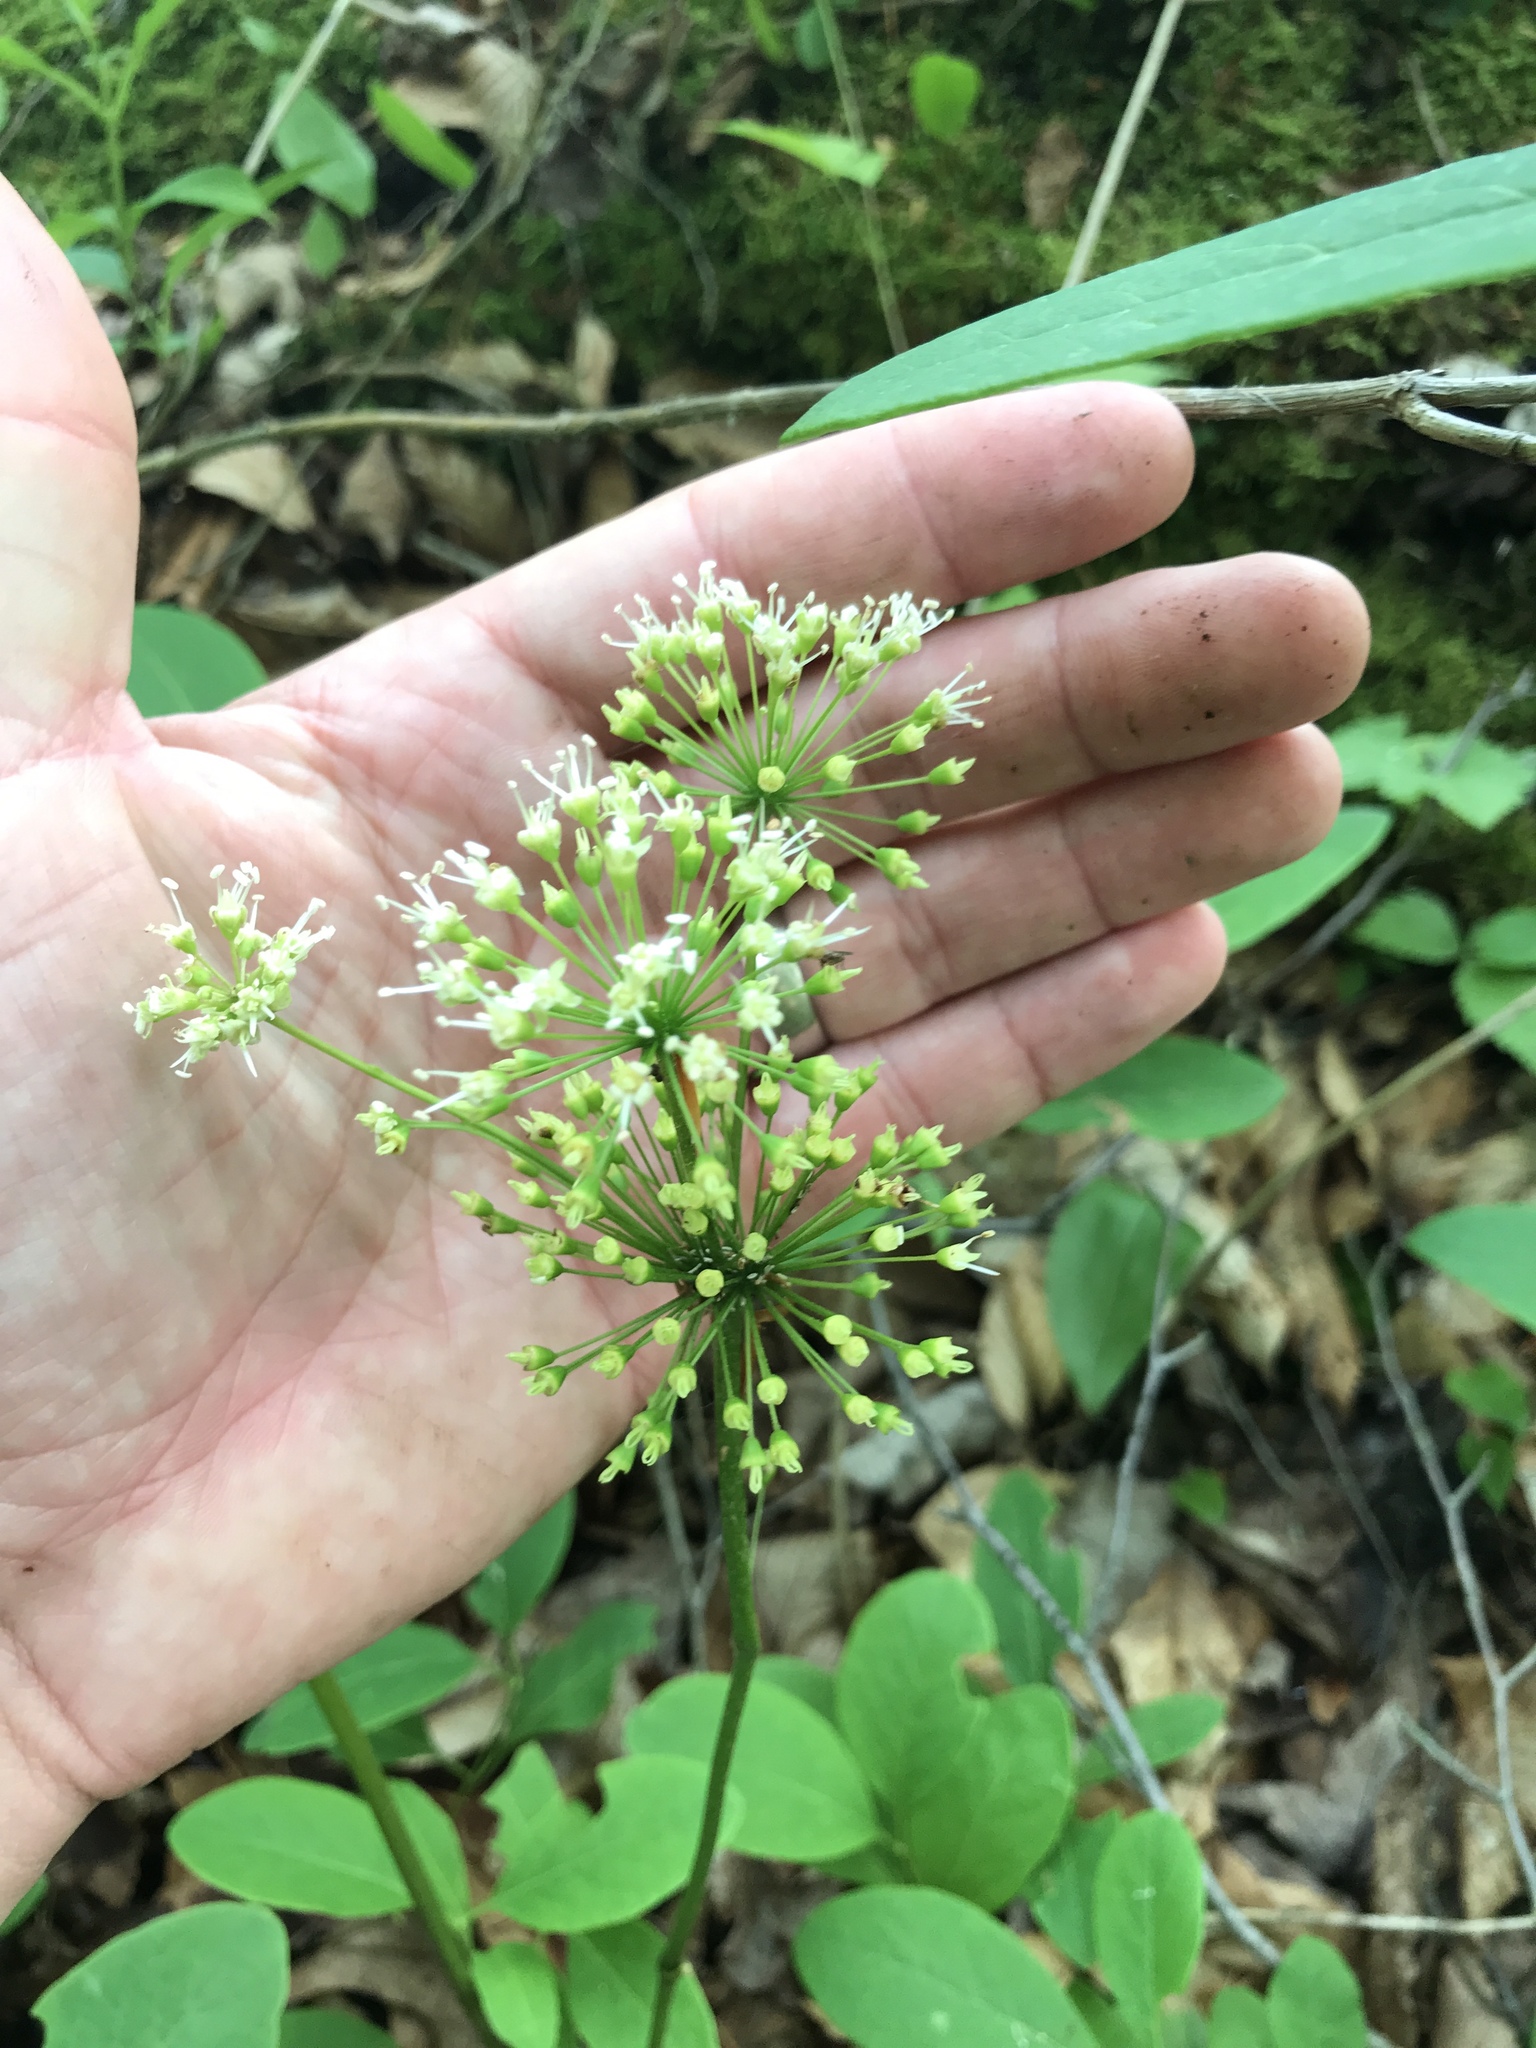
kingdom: Plantae
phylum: Tracheophyta
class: Magnoliopsida
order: Apiales
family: Araliaceae
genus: Aralia
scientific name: Aralia nudicaulis
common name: Wild sarsaparilla
